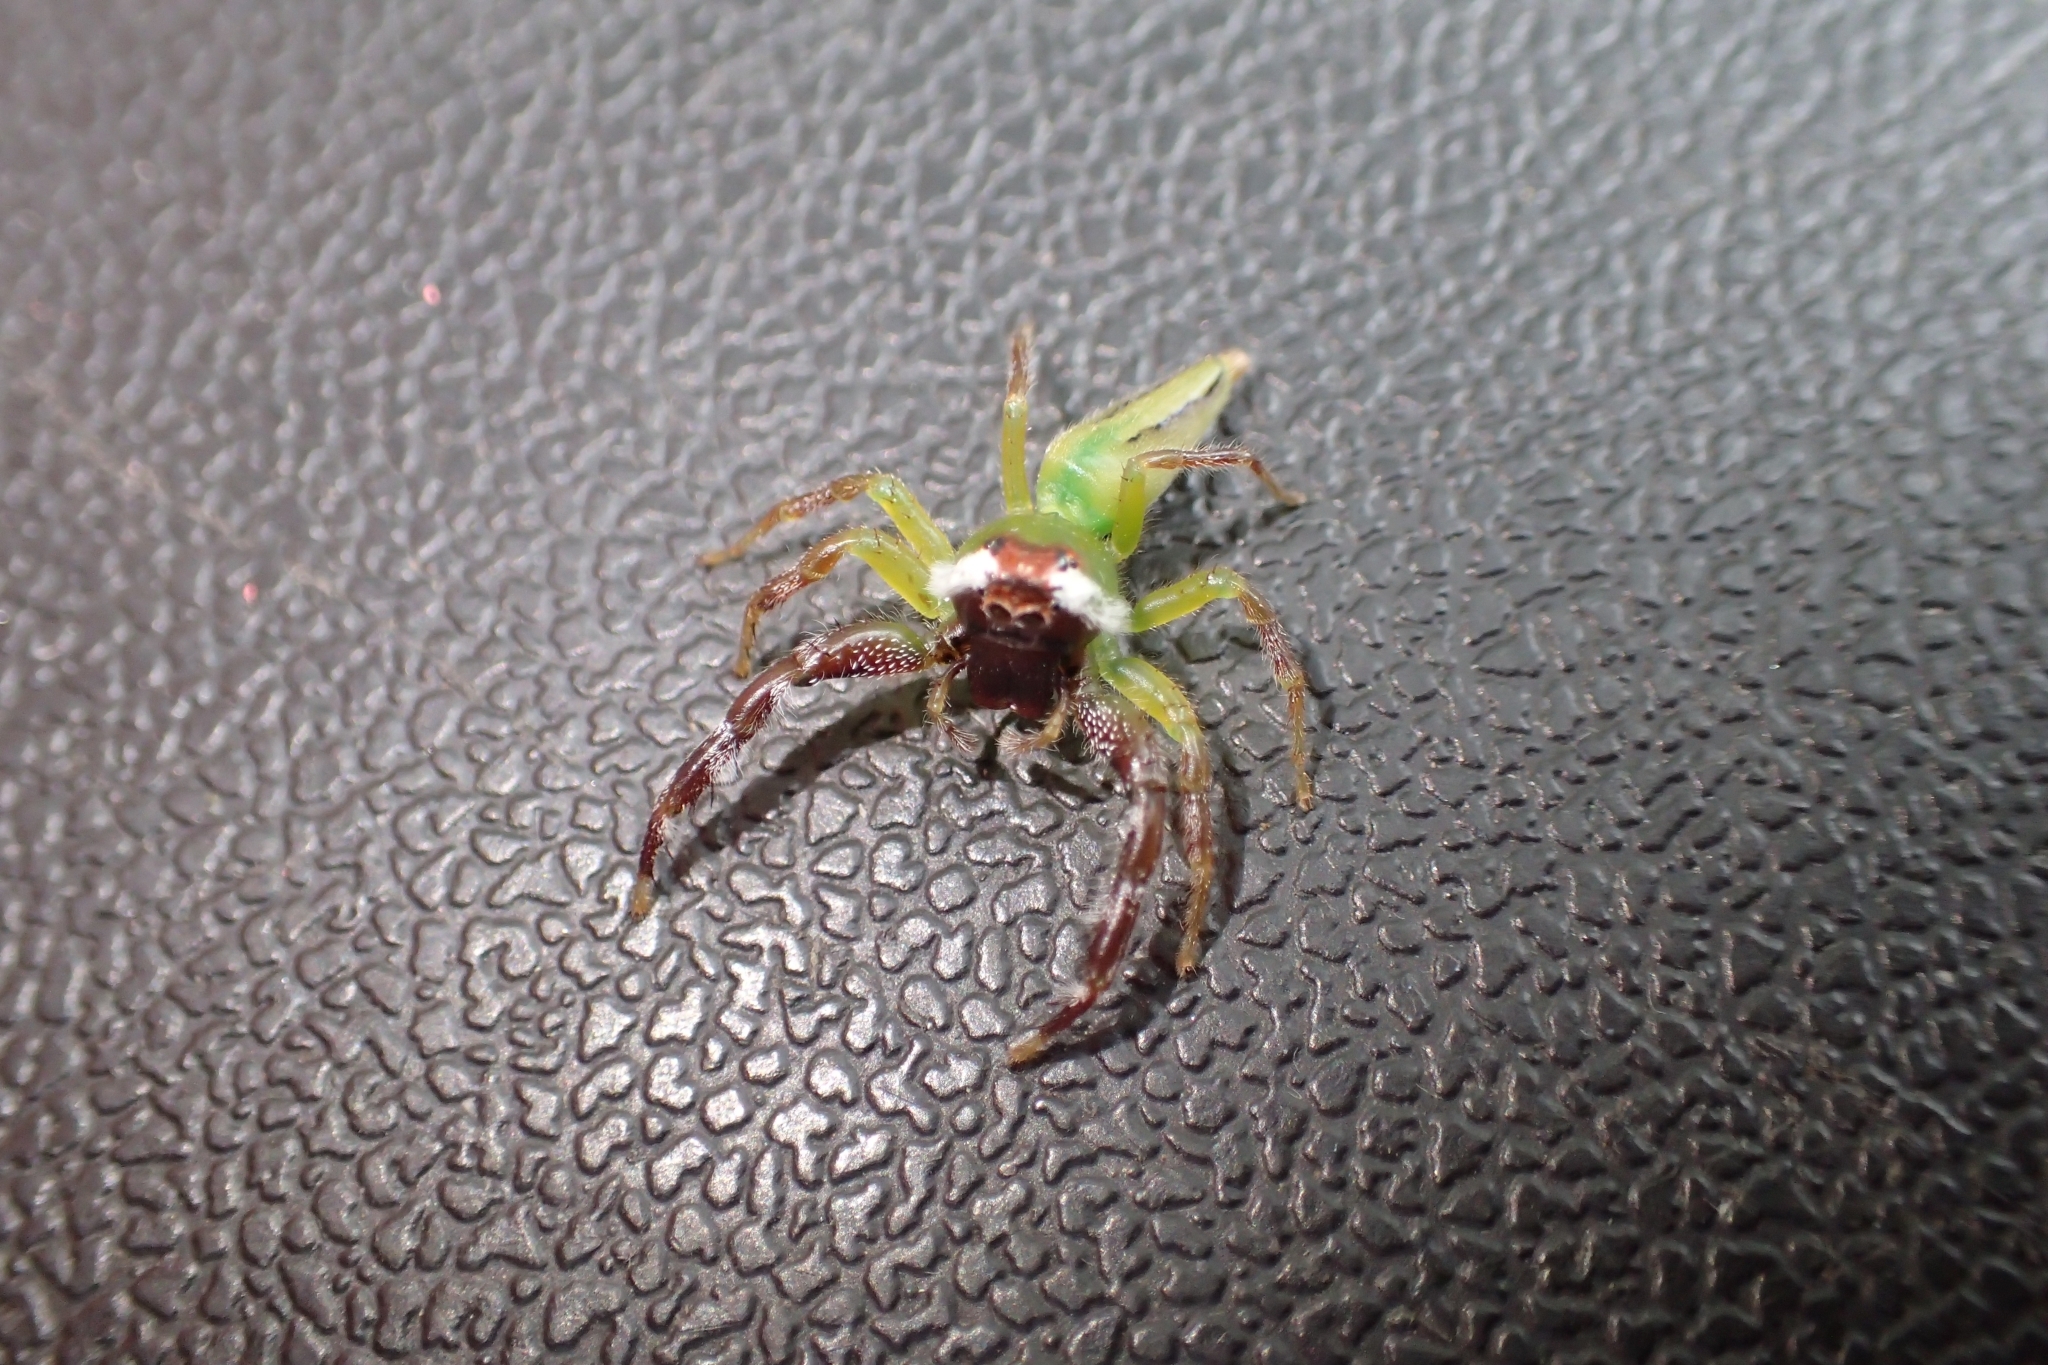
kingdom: Animalia
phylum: Arthropoda
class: Arachnida
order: Araneae
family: Salticidae
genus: Mopsus
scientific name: Mopsus mormon
